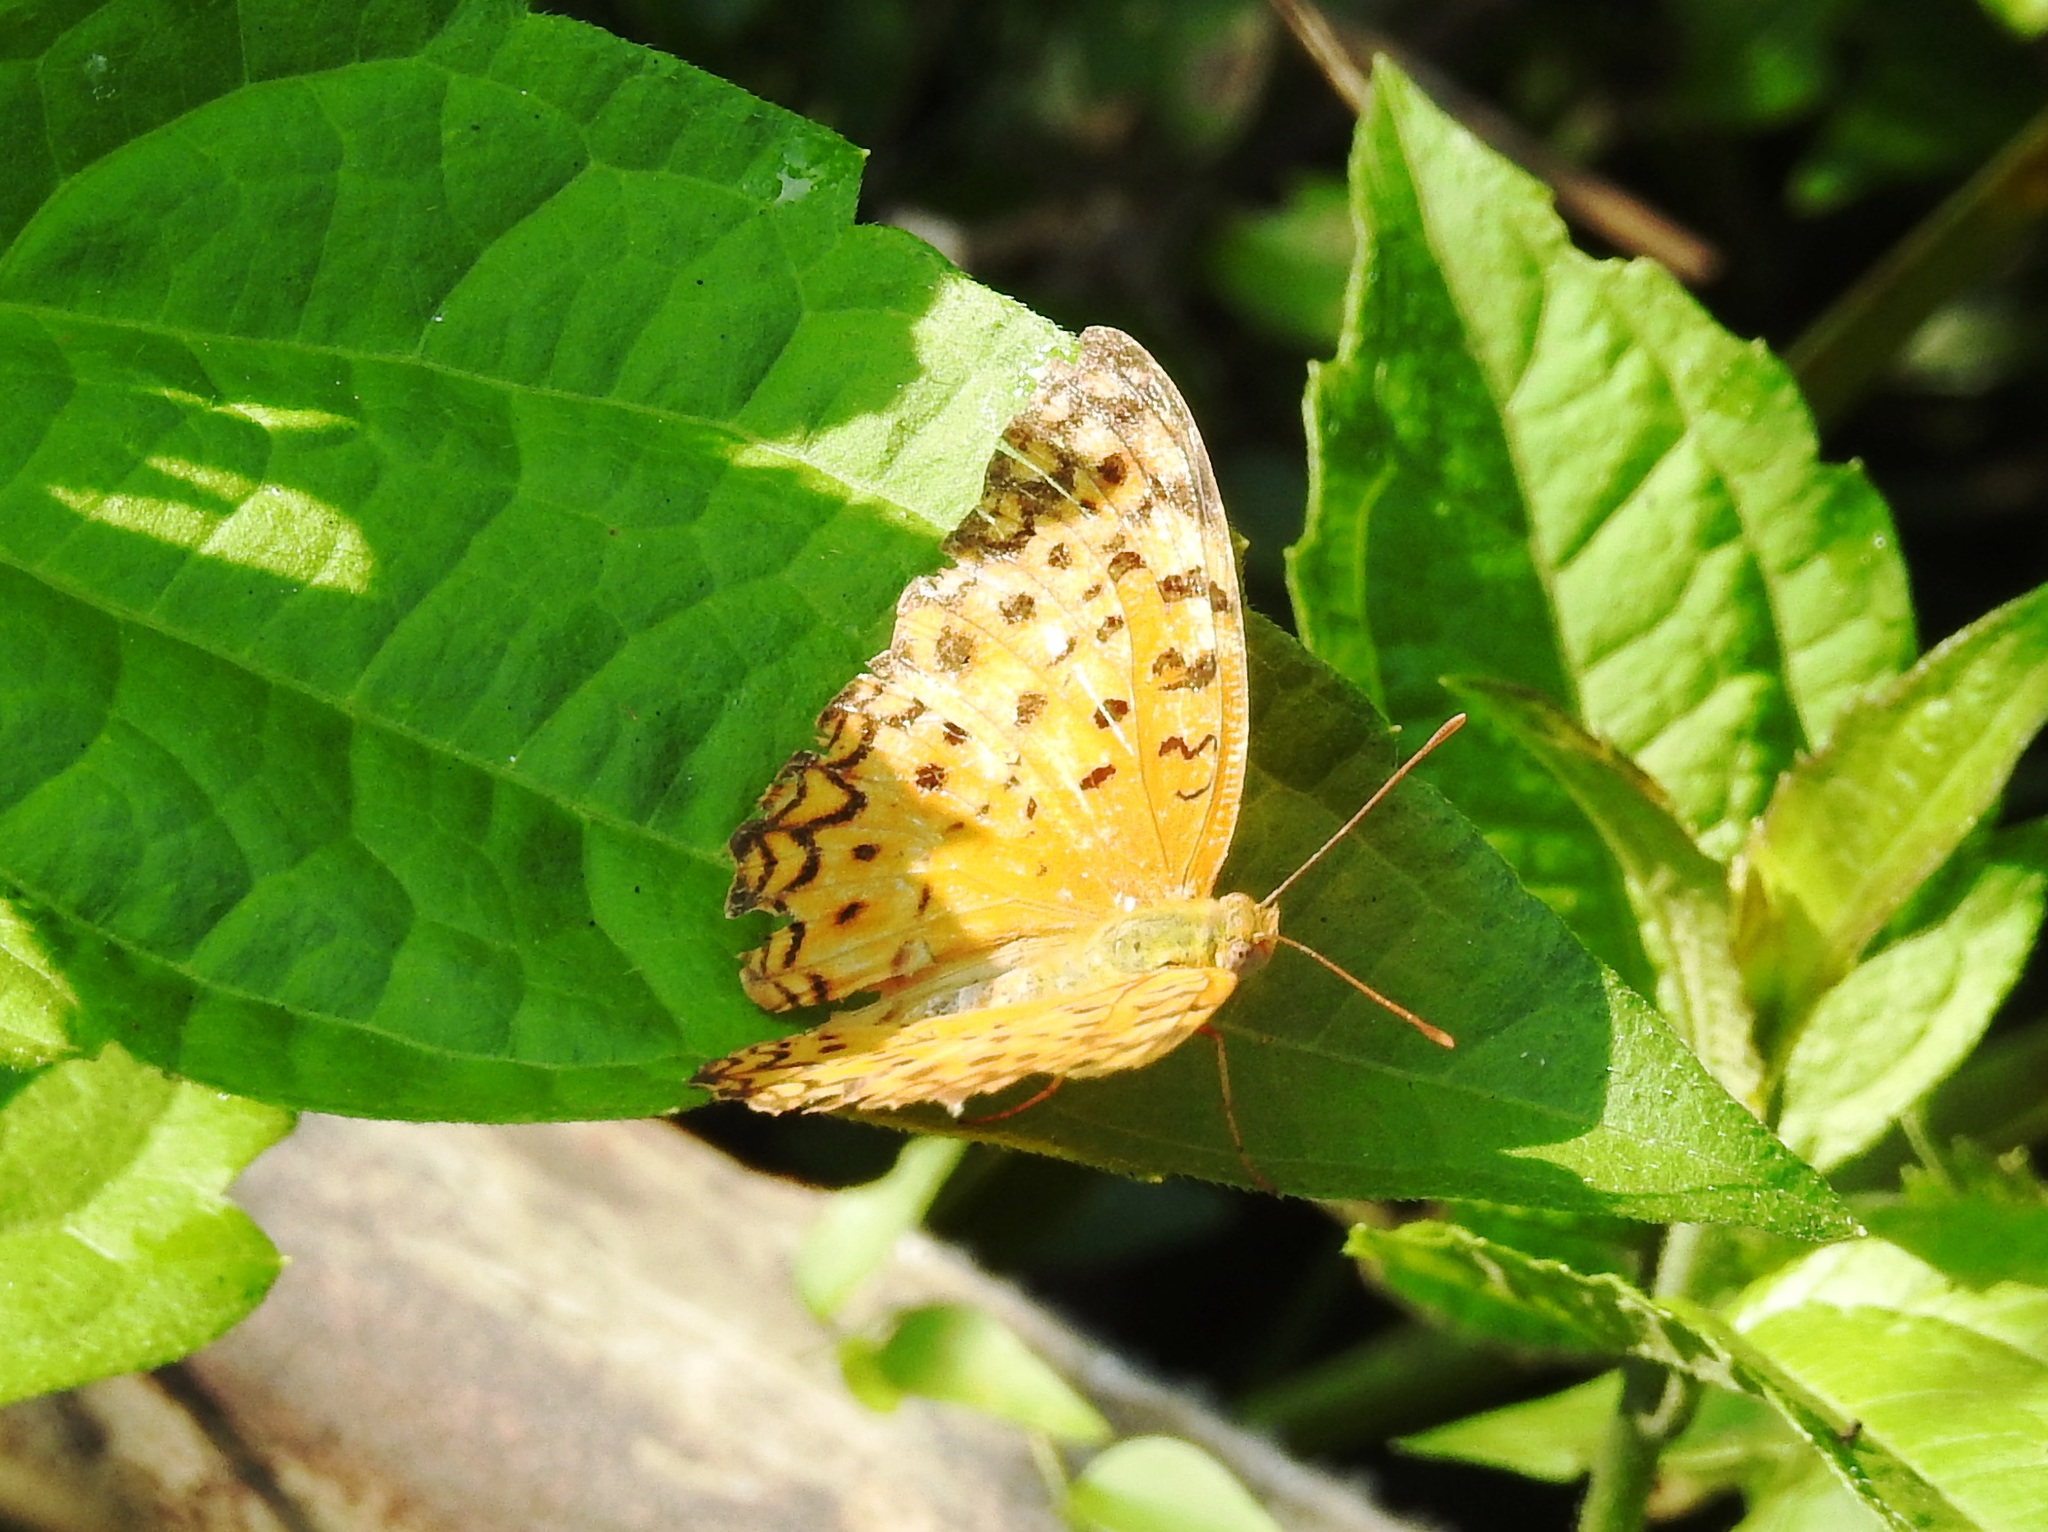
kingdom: Animalia
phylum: Arthropoda
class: Insecta
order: Lepidoptera
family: Nymphalidae
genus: Phalanta
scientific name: Phalanta phalantha
